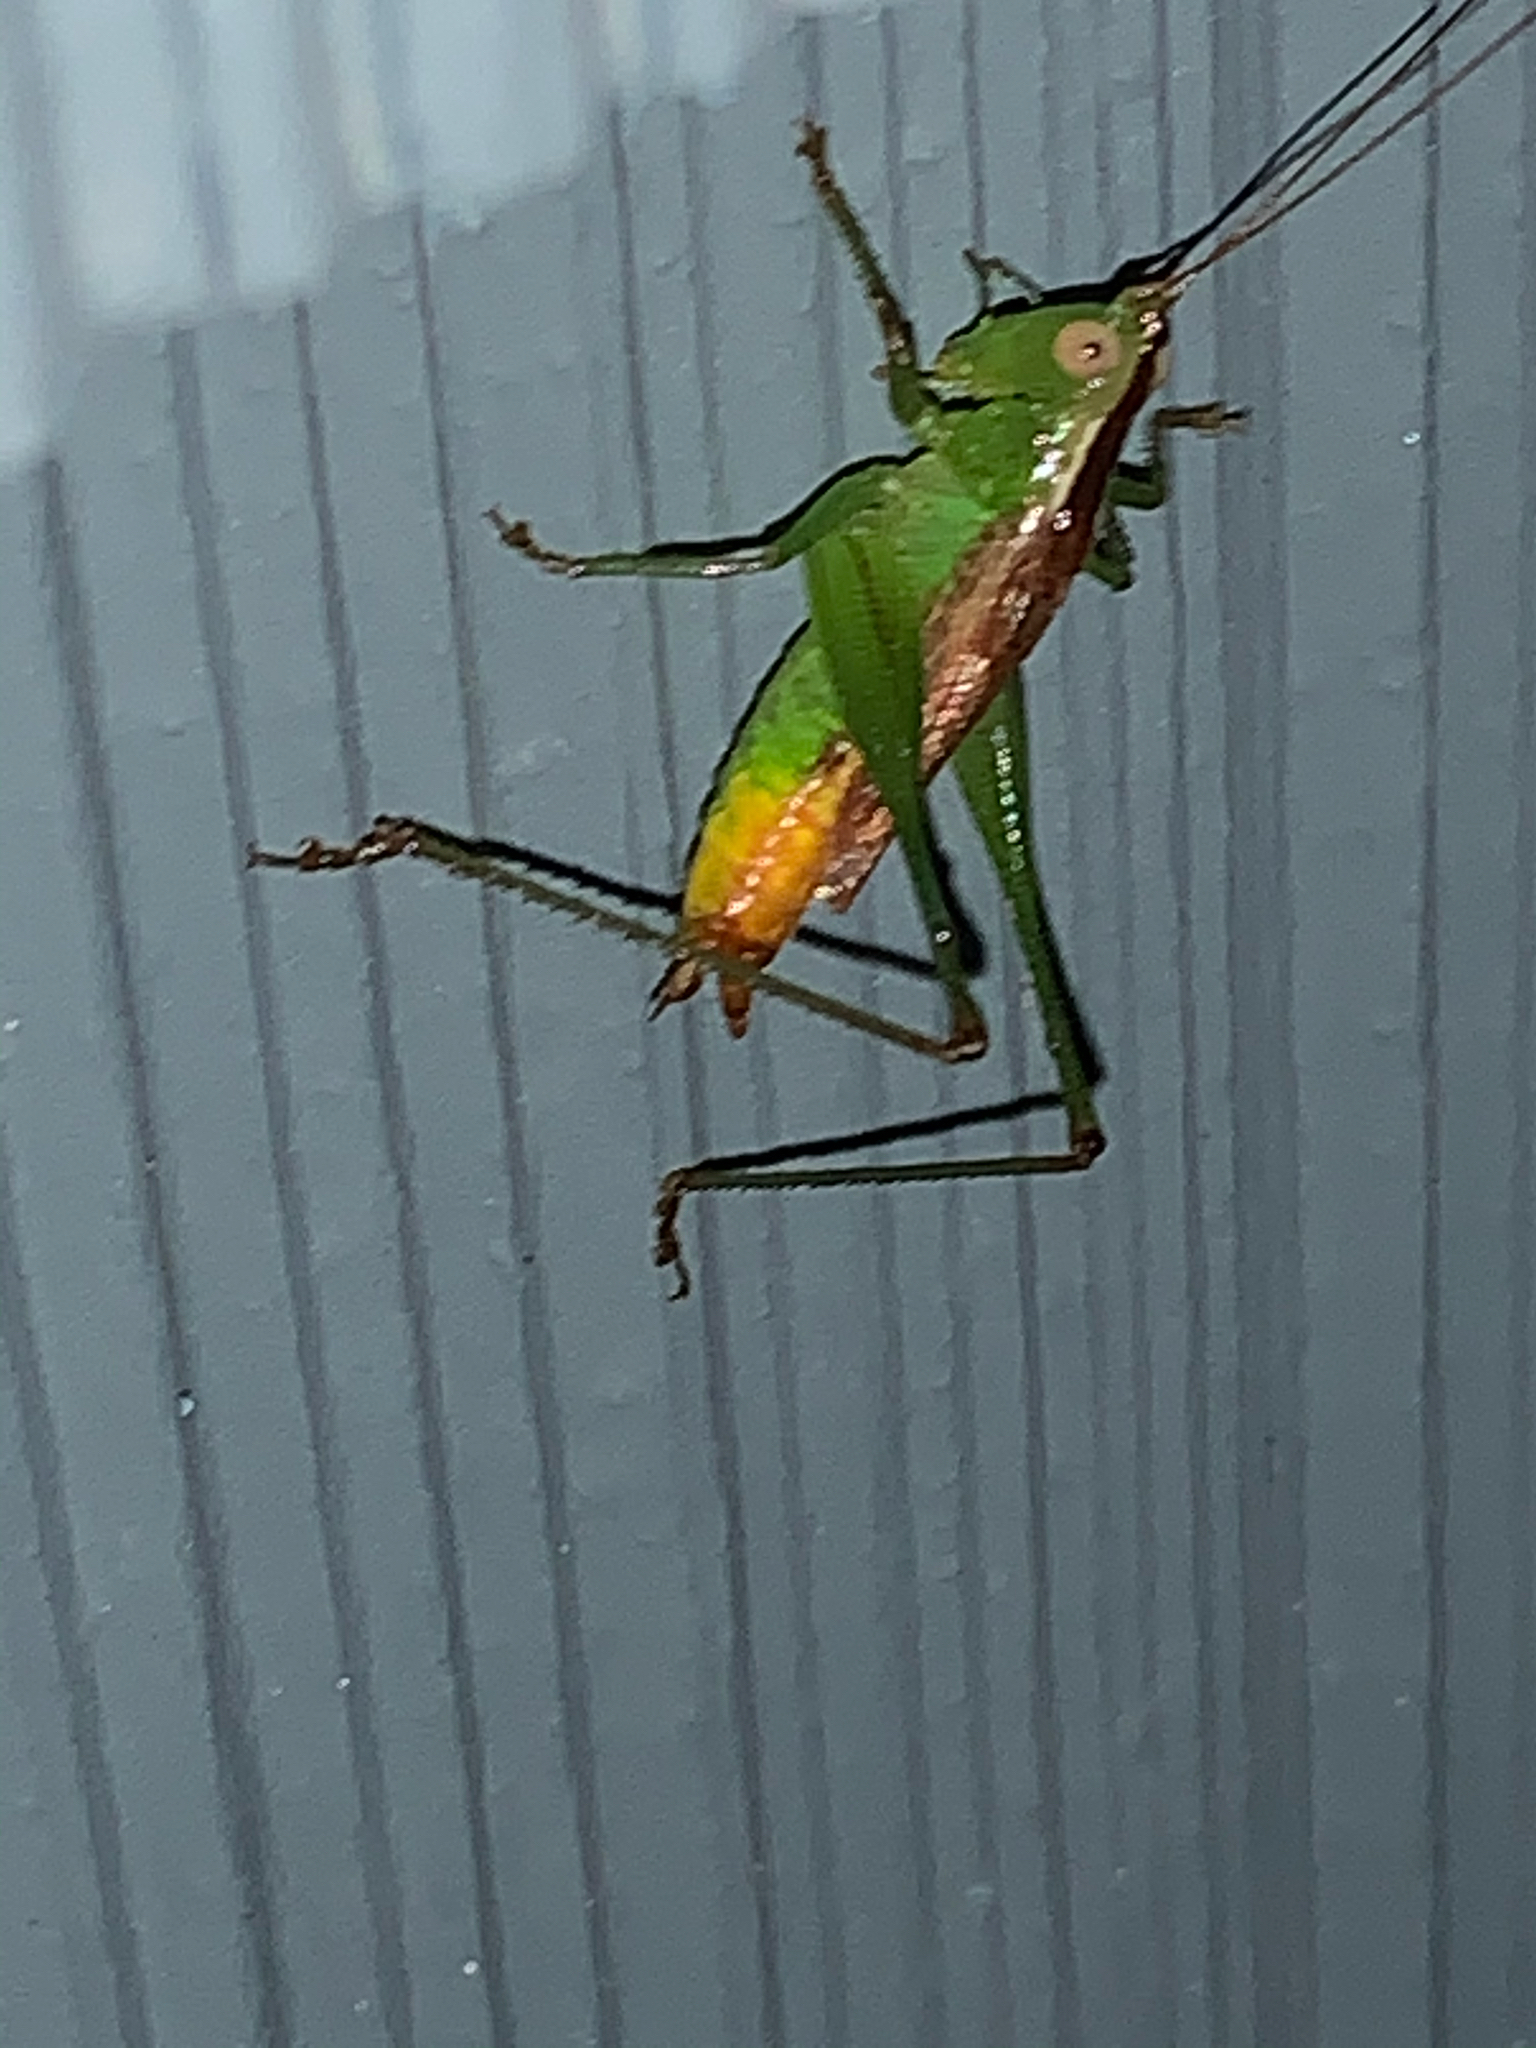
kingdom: Animalia
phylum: Arthropoda
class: Insecta
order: Orthoptera
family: Tettigoniidae
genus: Conocephalus
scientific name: Conocephalus brevipennis
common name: Short-winged meadow katydid
